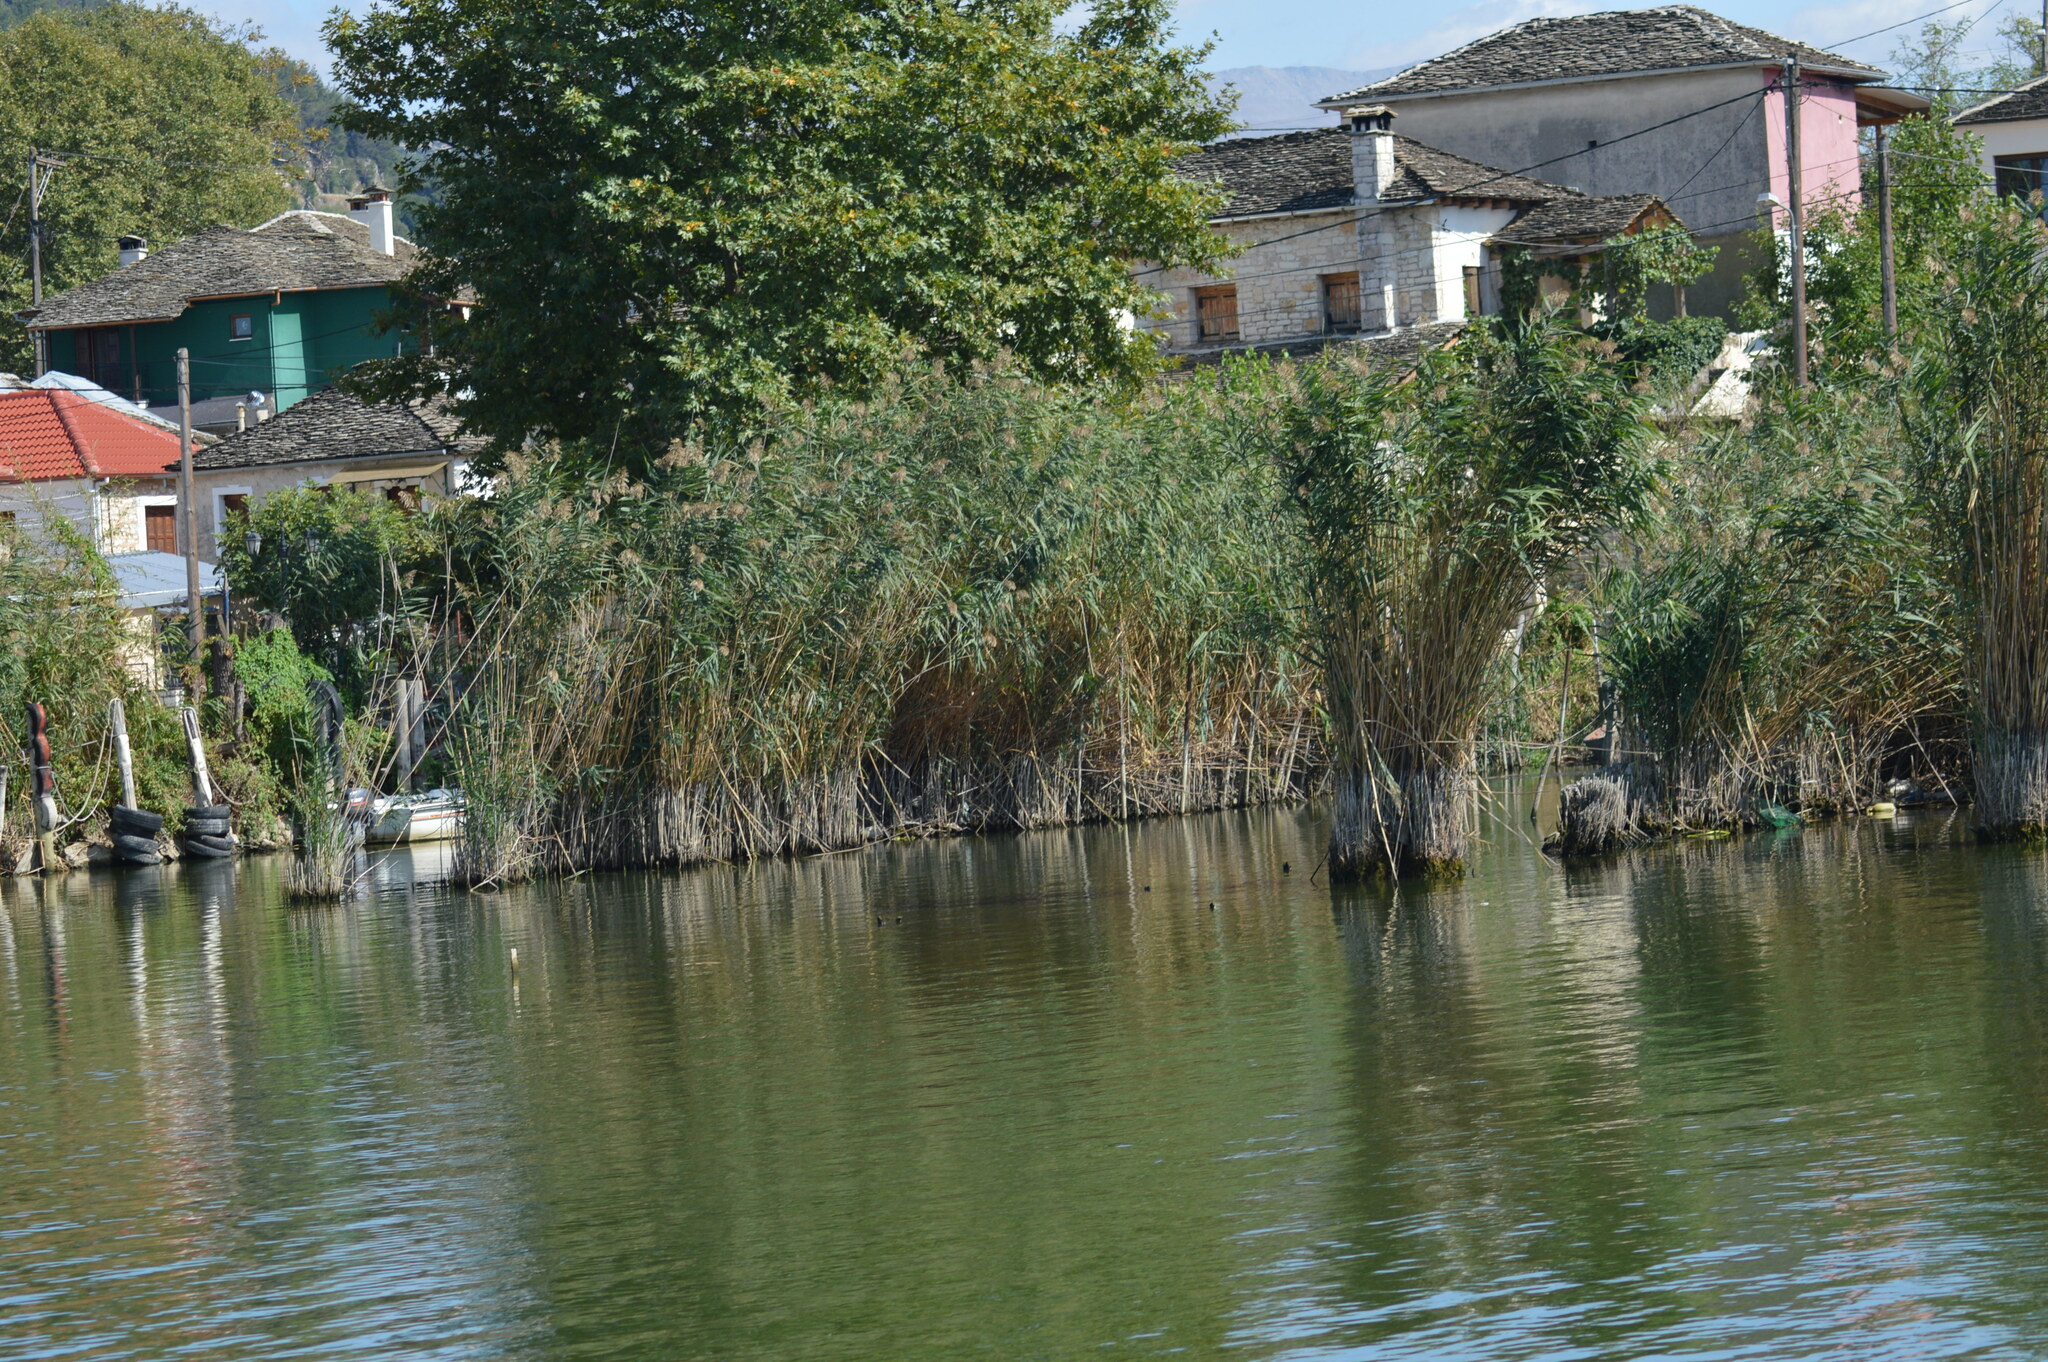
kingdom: Plantae
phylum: Tracheophyta
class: Liliopsida
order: Poales
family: Poaceae
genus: Phragmites
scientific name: Phragmites australis
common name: Common reed
